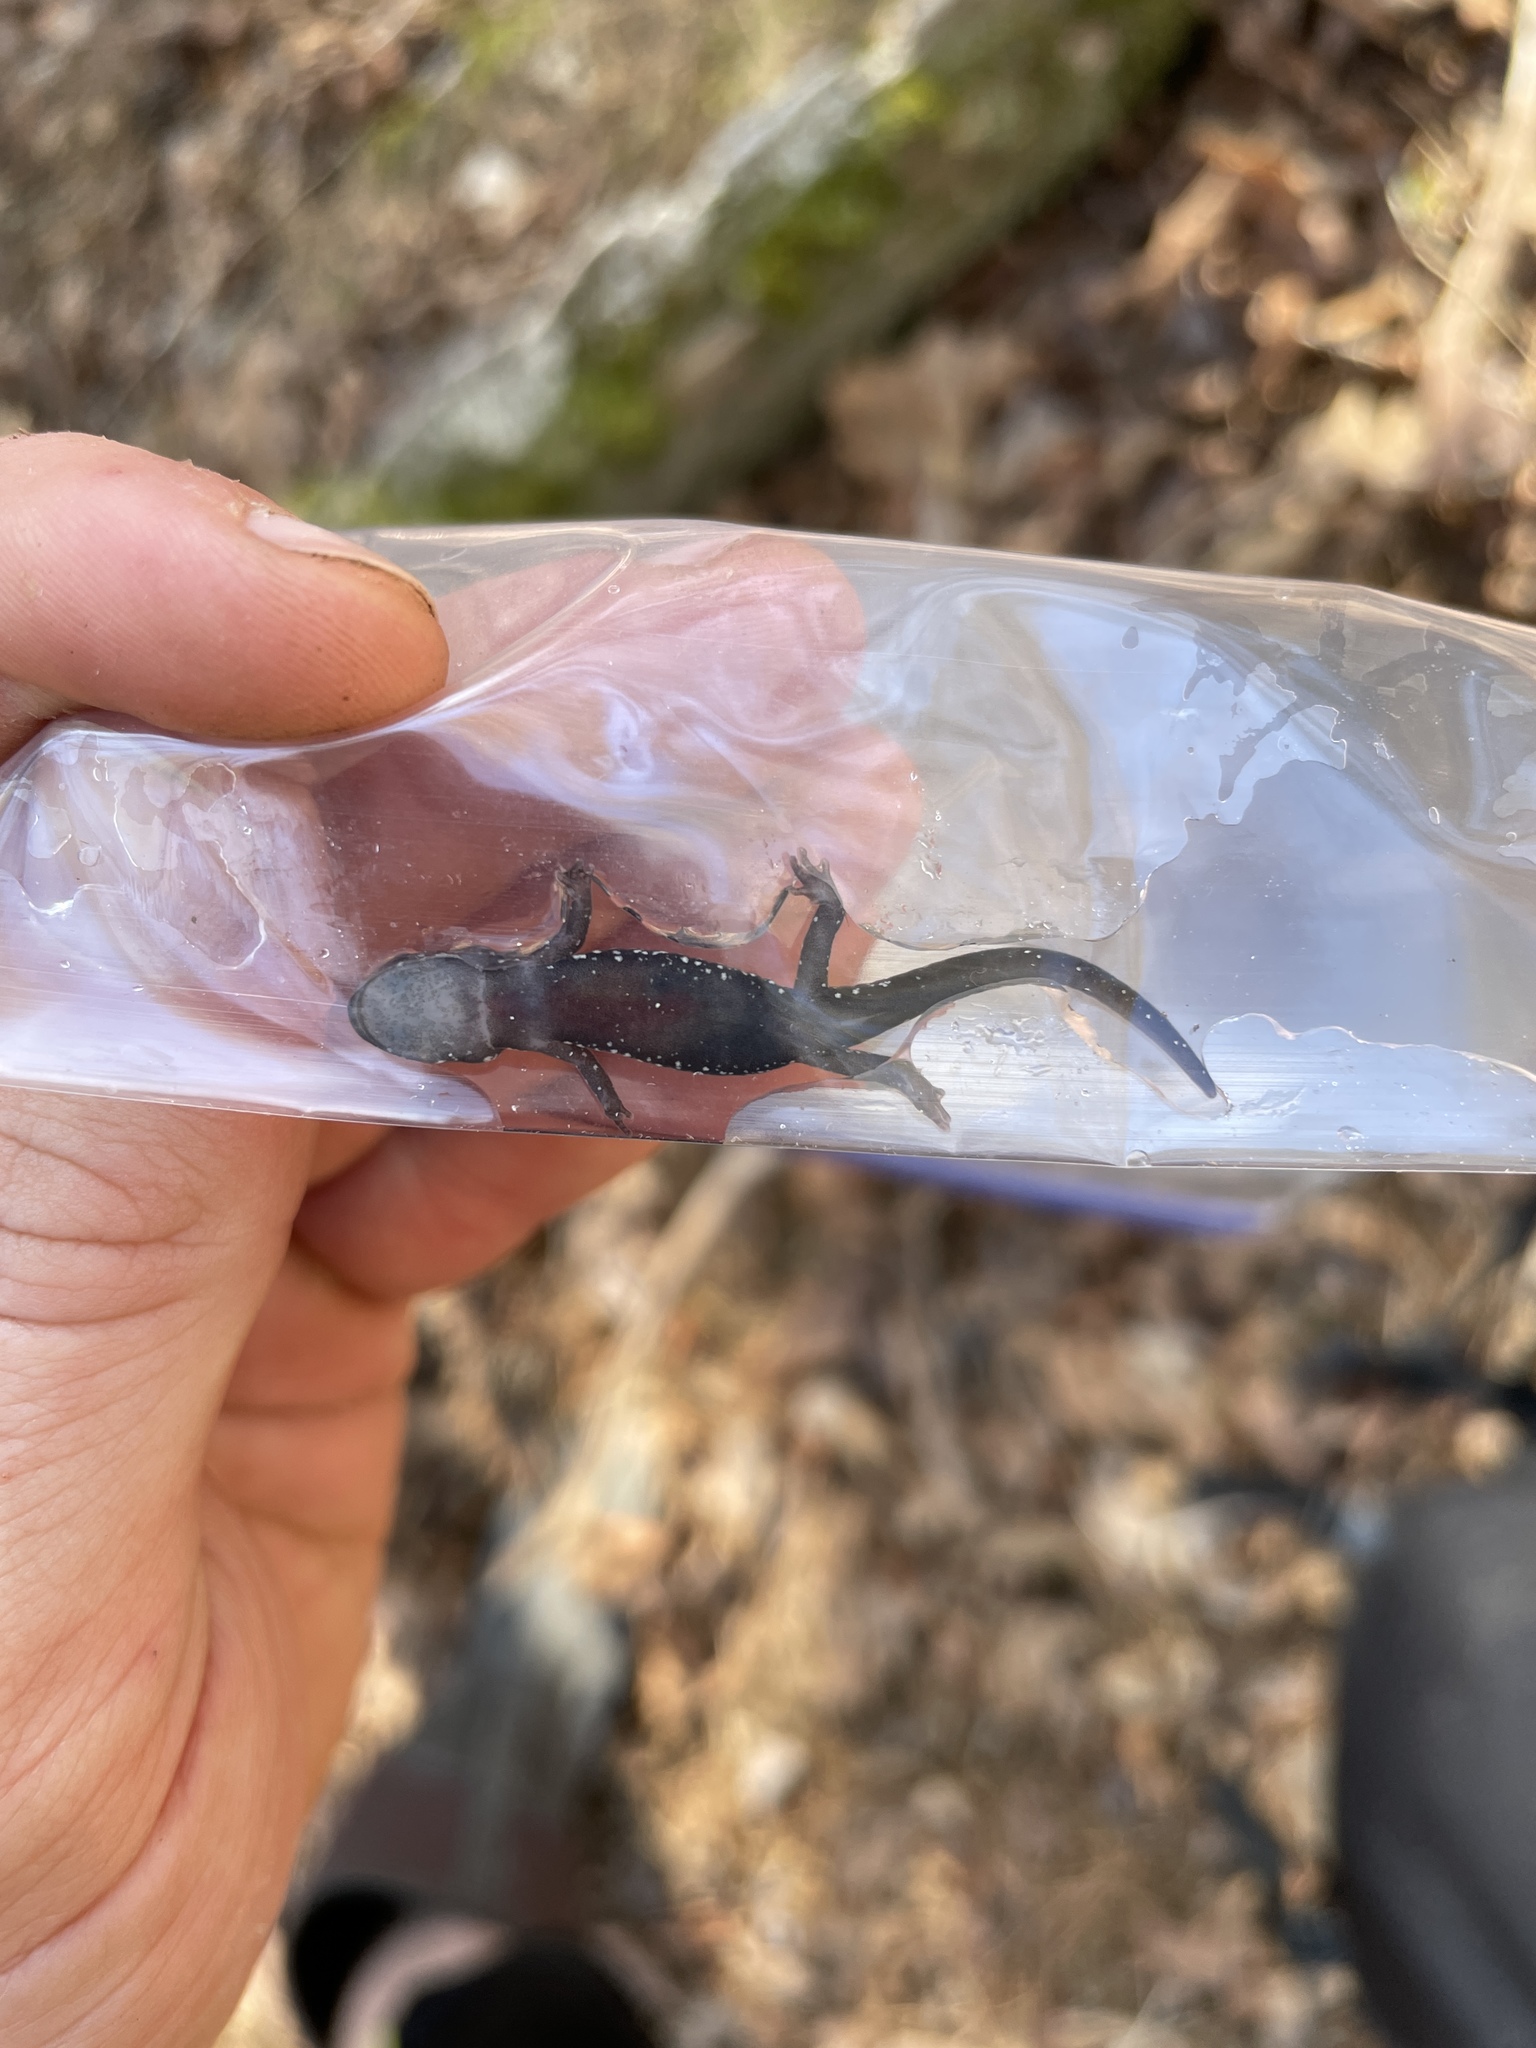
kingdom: Animalia
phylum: Chordata
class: Amphibia
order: Caudata
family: Plethodontidae
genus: Plethodon
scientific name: Plethodon albagula
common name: Western slimy salamander
